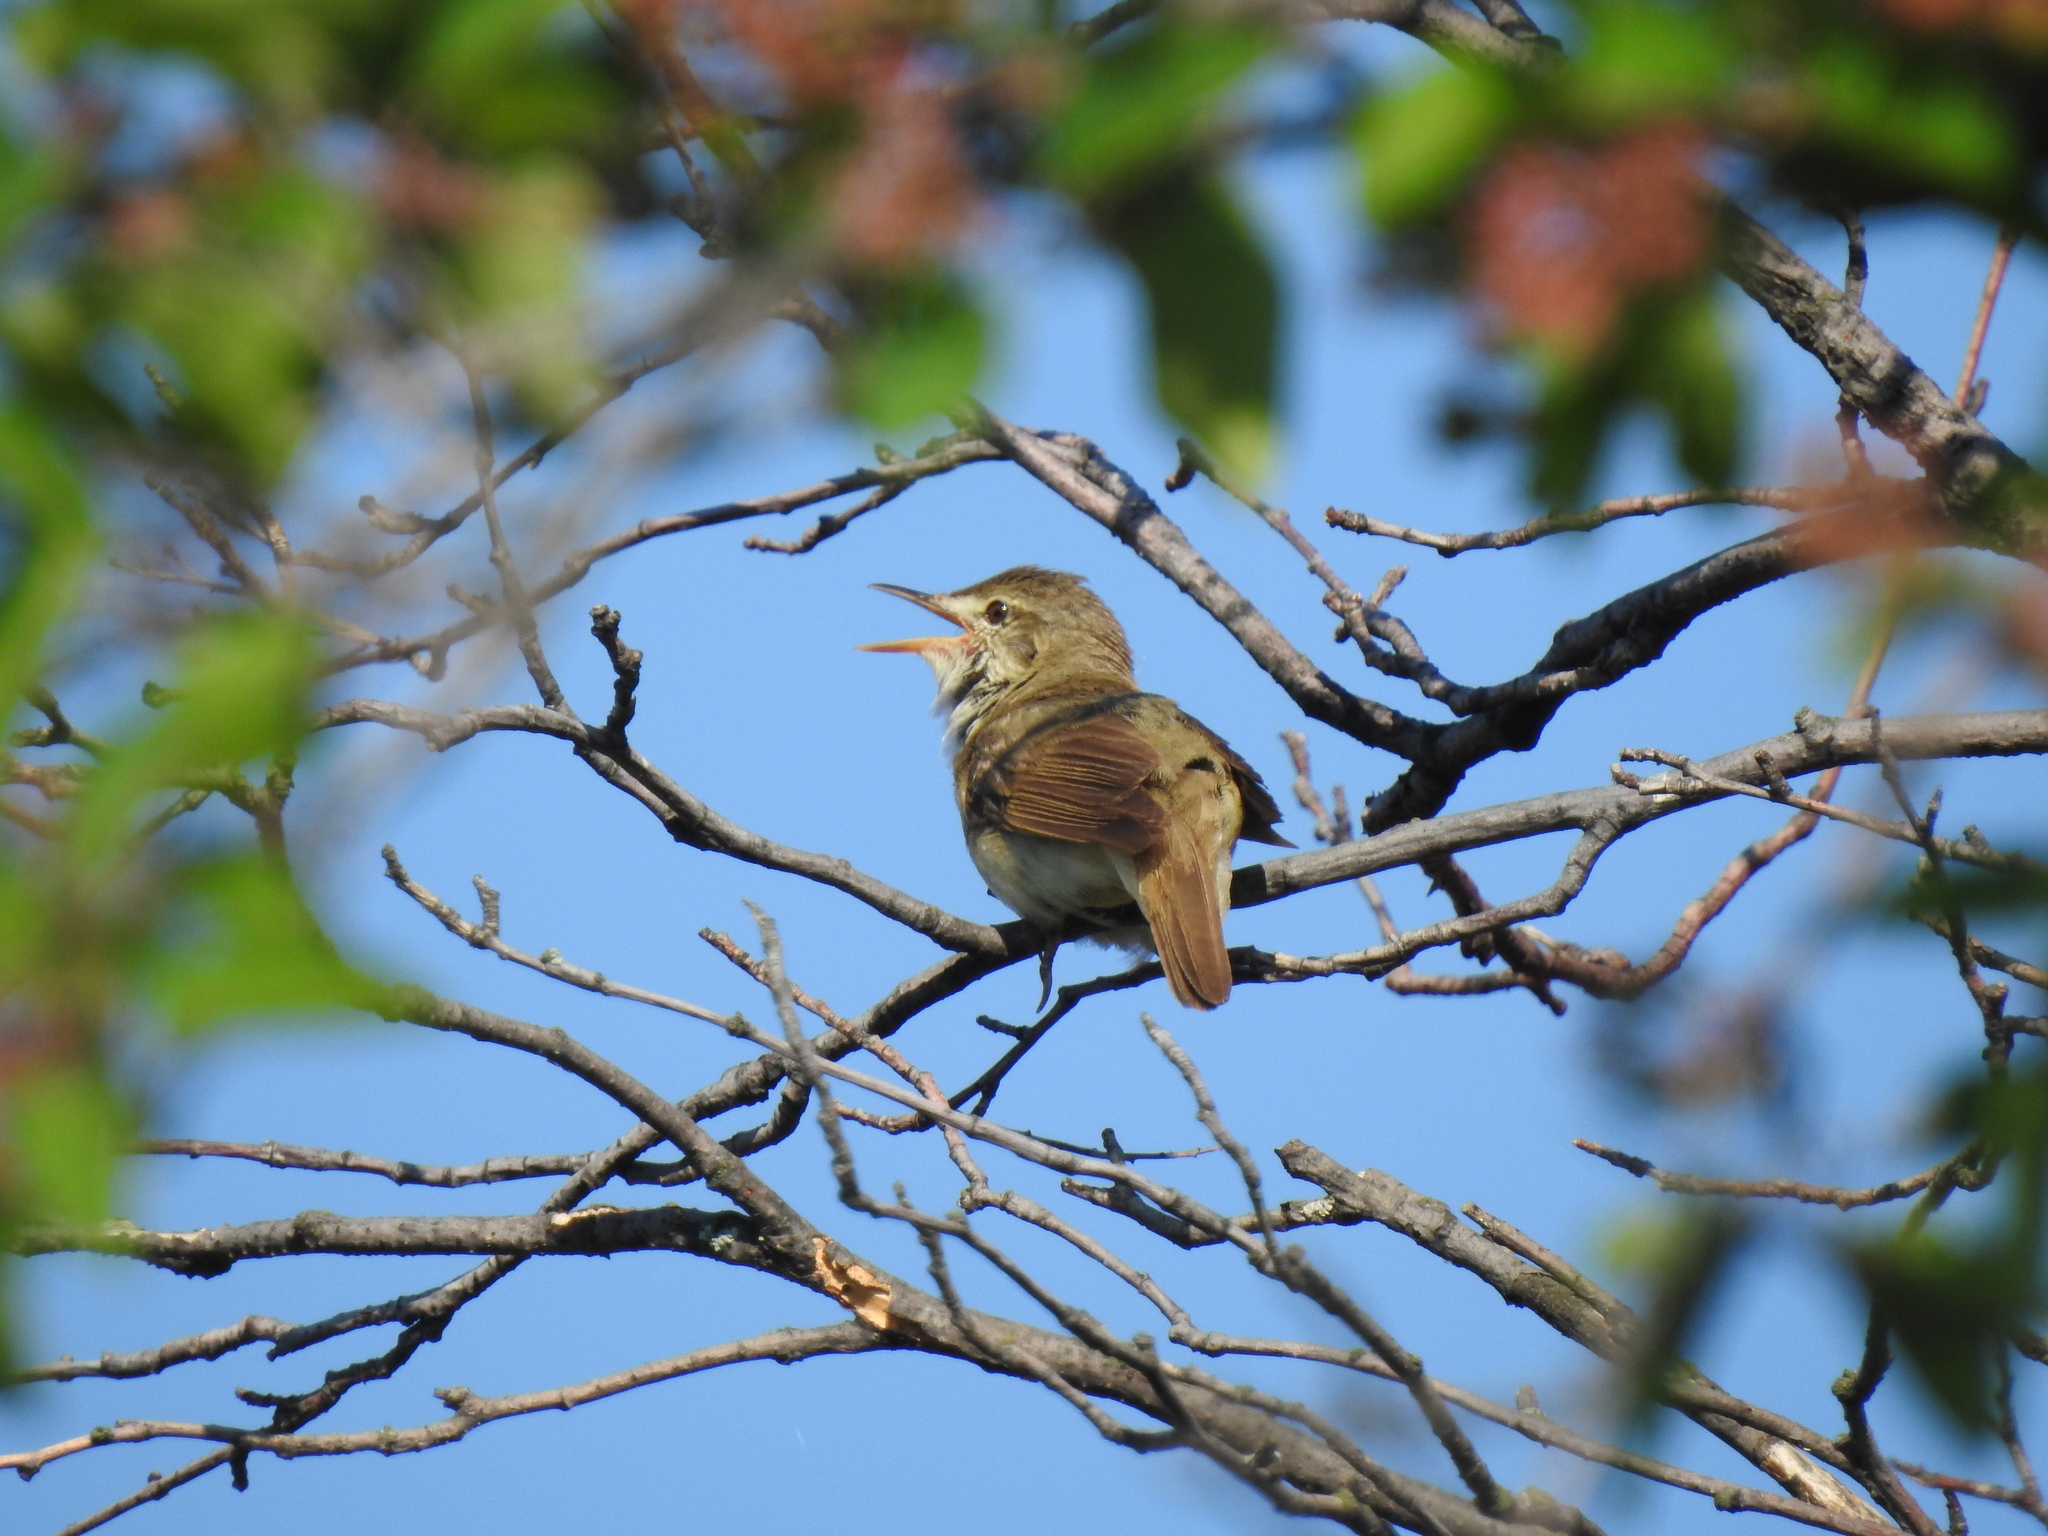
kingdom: Animalia
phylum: Chordata
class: Aves
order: Passeriformes
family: Acrocephalidae
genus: Acrocephalus
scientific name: Acrocephalus dumetorum
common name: Blyth's reed warbler
